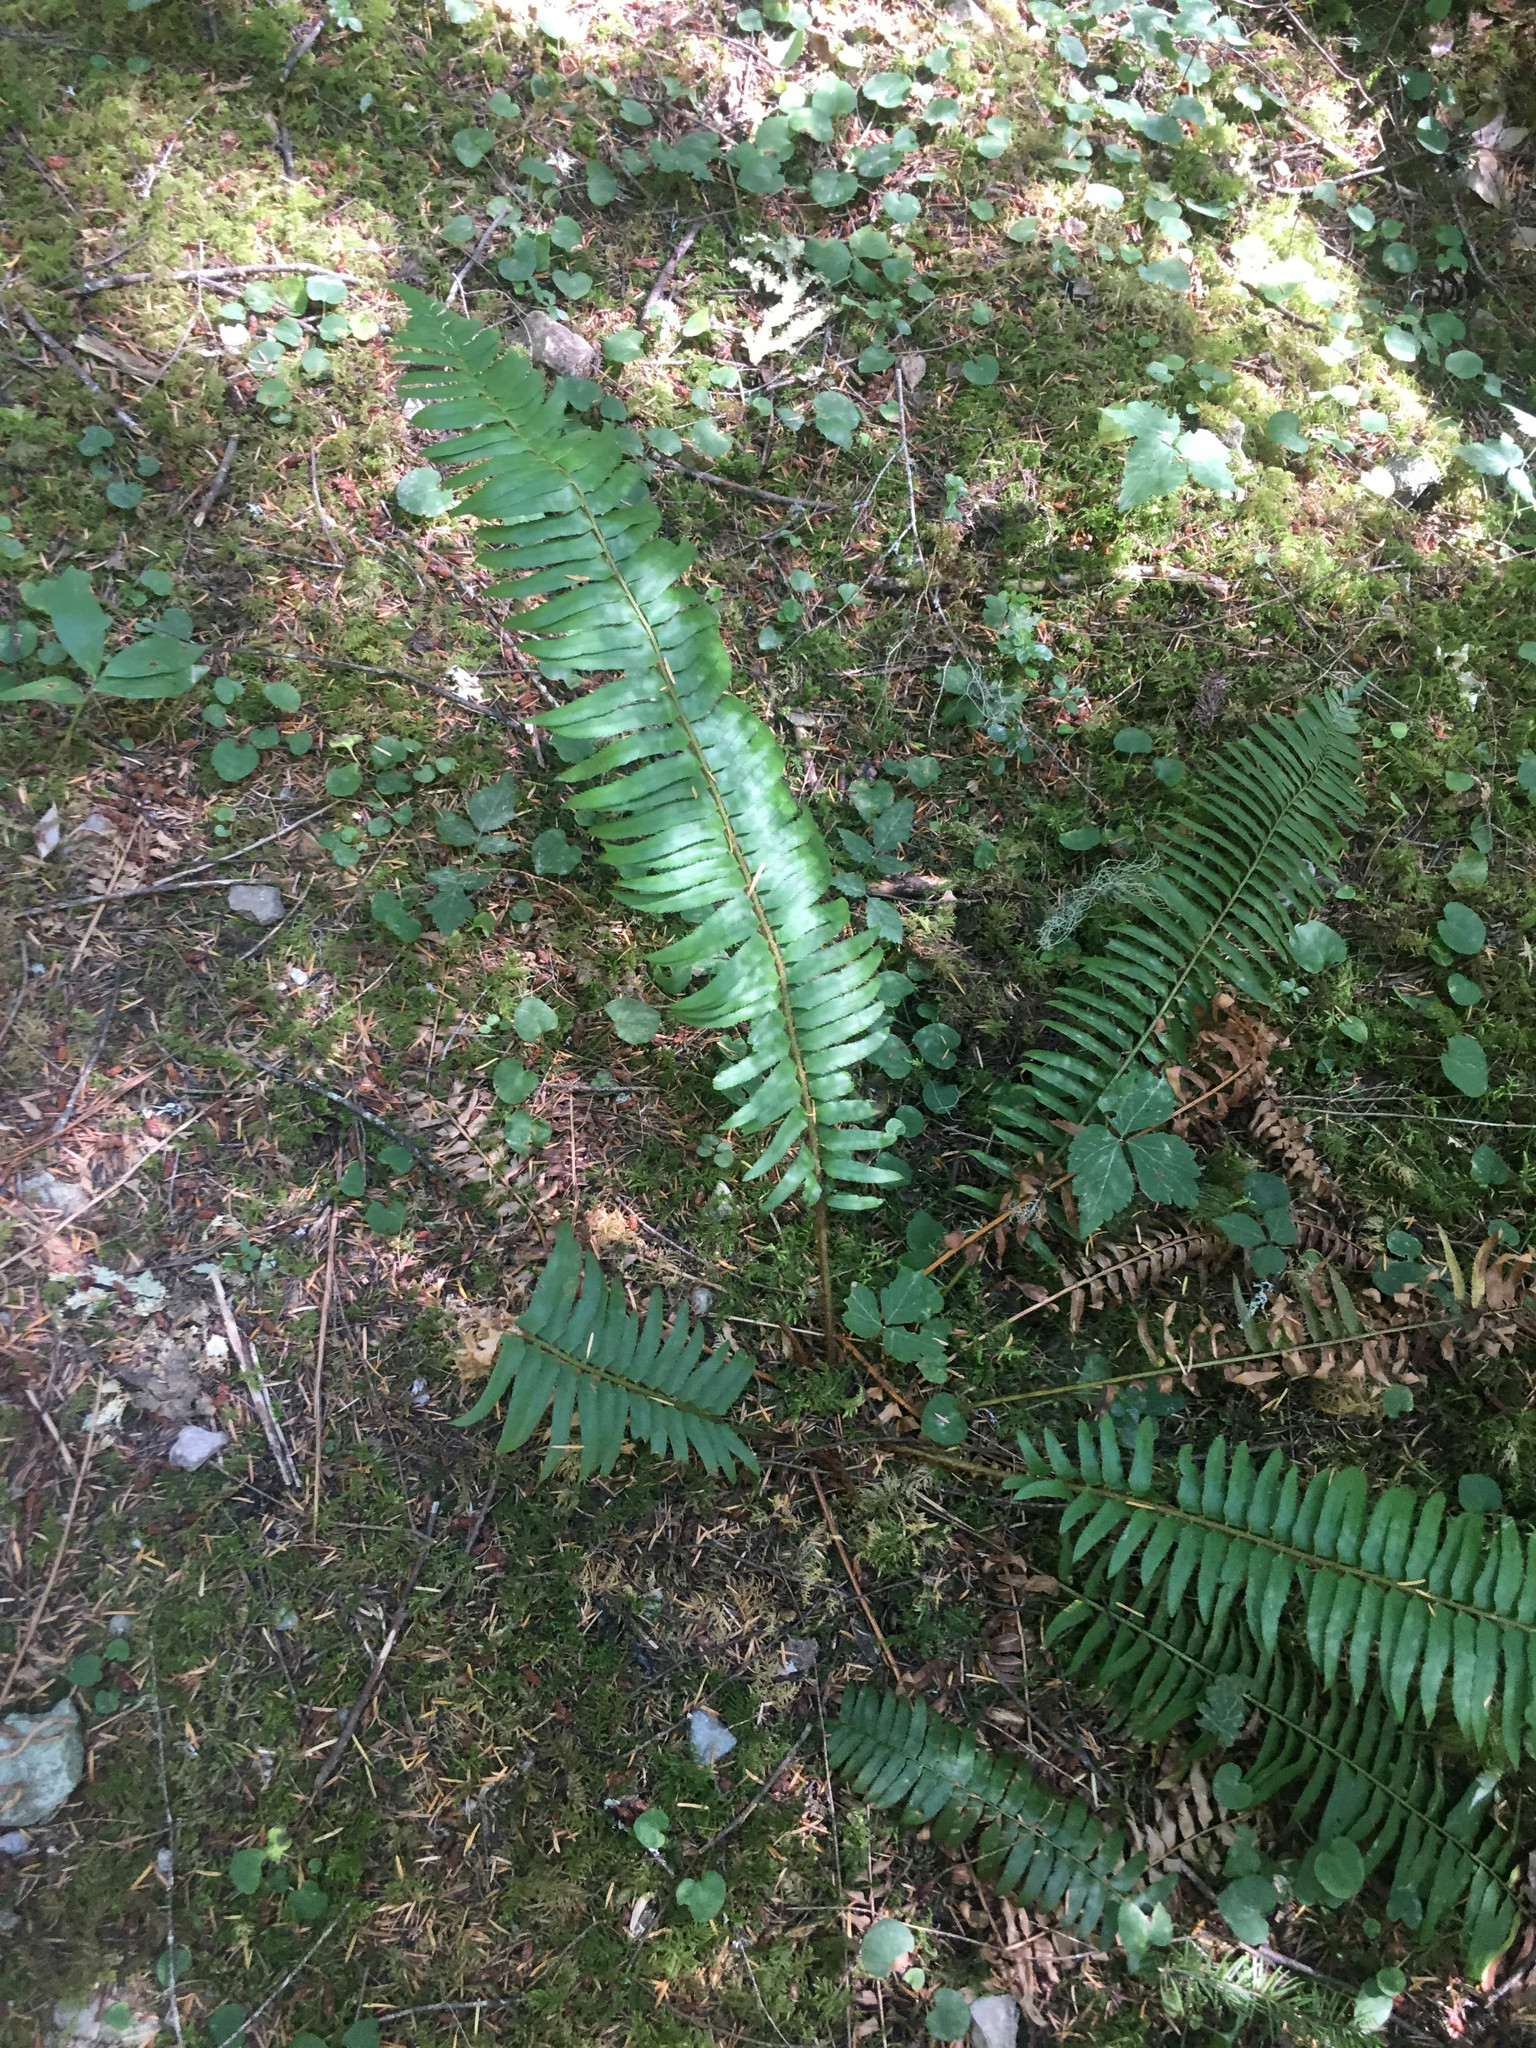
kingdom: Plantae
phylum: Tracheophyta
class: Polypodiopsida
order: Polypodiales
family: Dryopteridaceae
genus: Polystichum
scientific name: Polystichum munitum
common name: Western sword-fern
